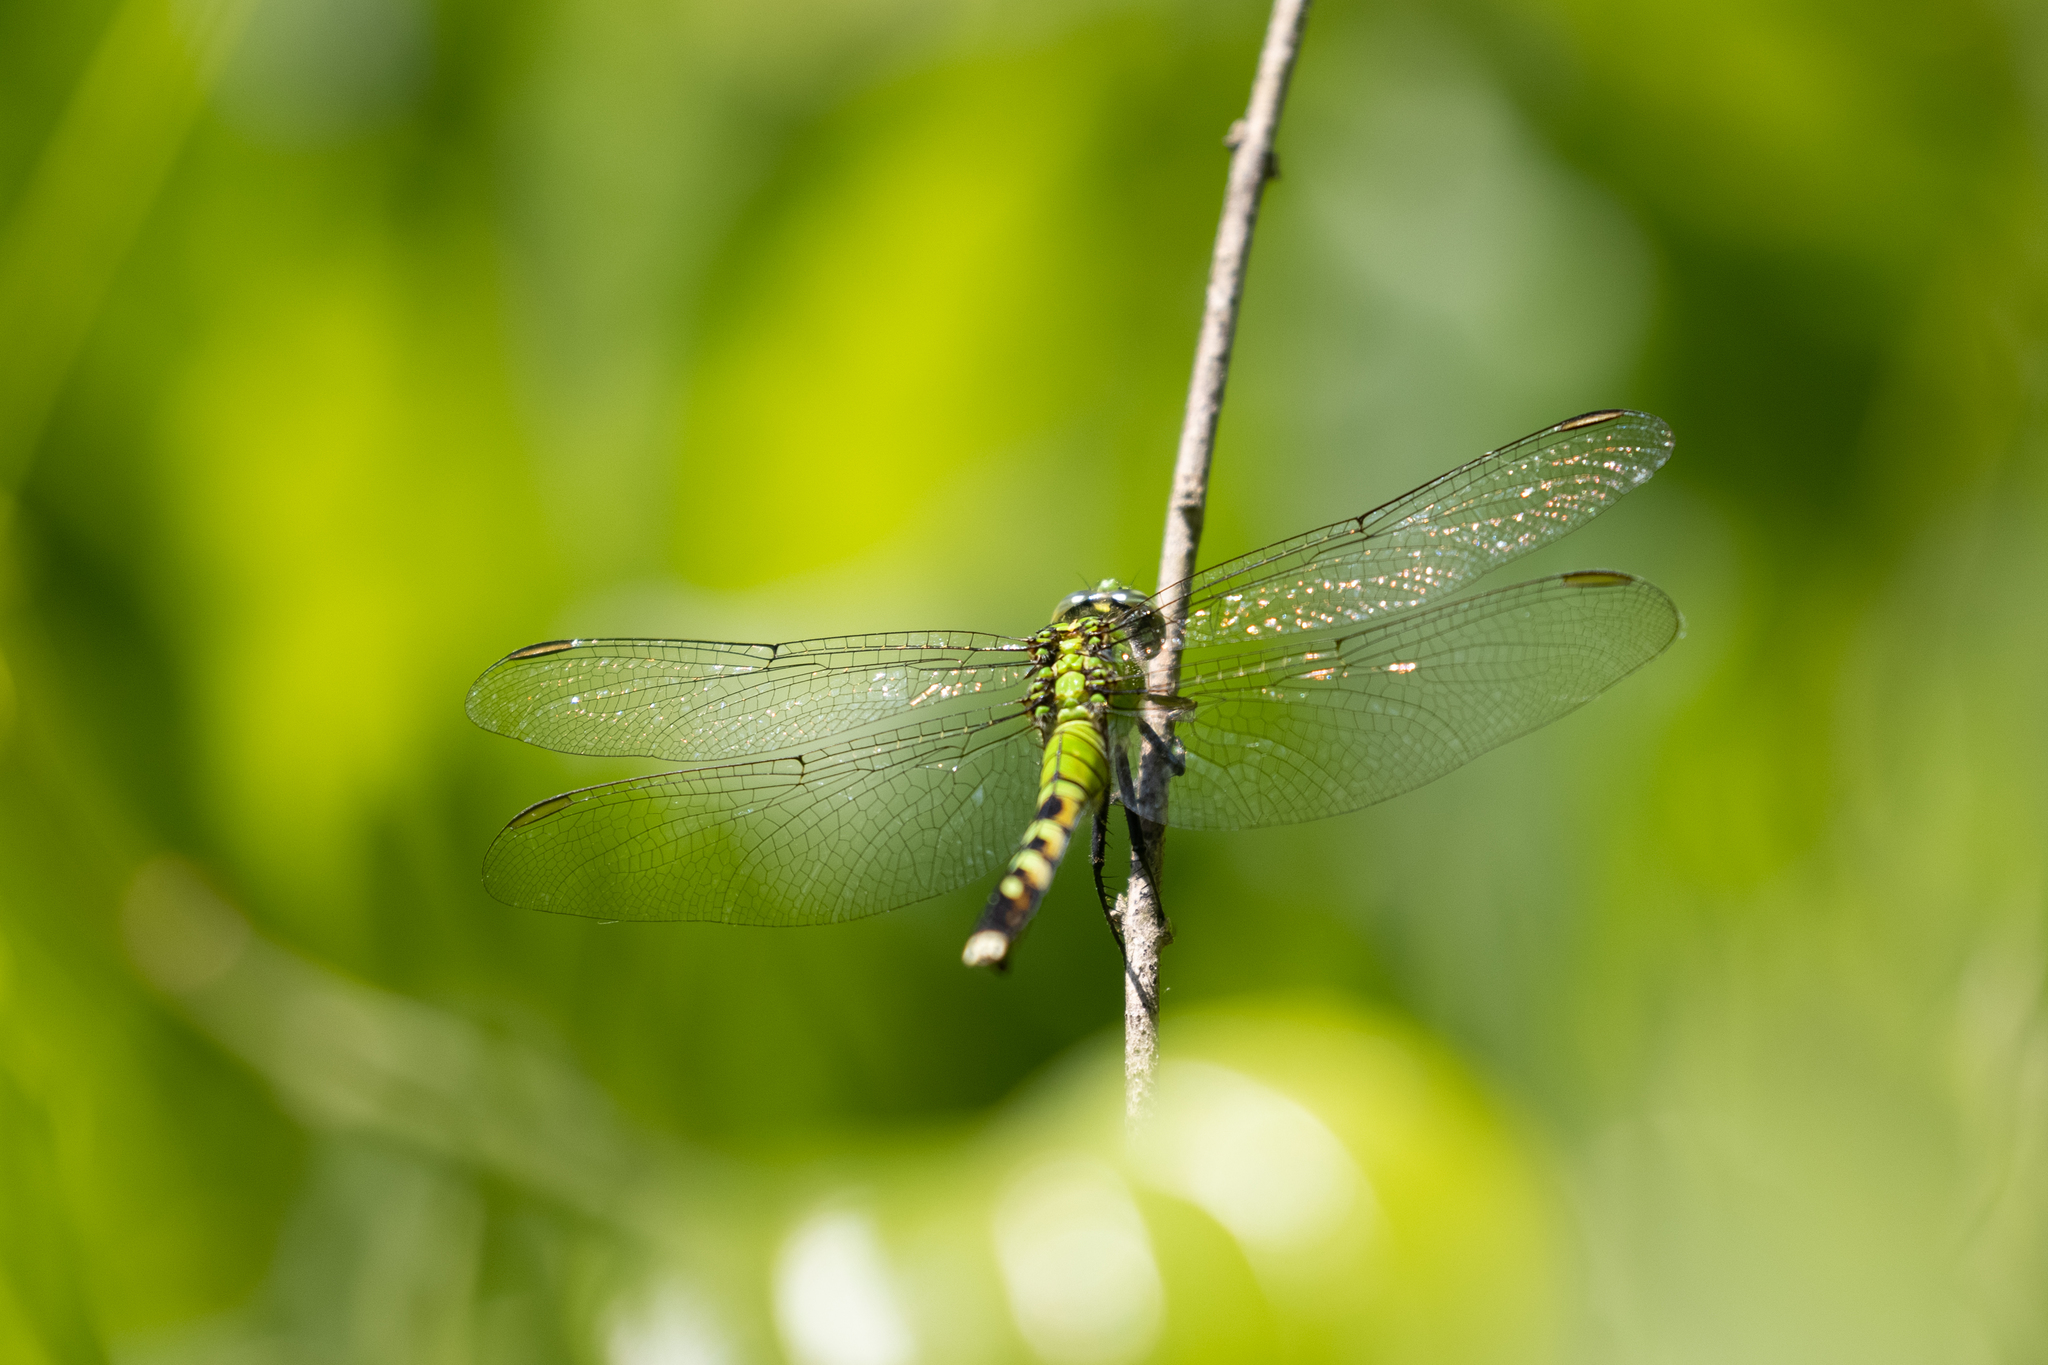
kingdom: Animalia
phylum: Arthropoda
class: Insecta
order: Odonata
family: Libellulidae
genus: Erythemis
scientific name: Erythemis simplicicollis
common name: Eastern pondhawk
